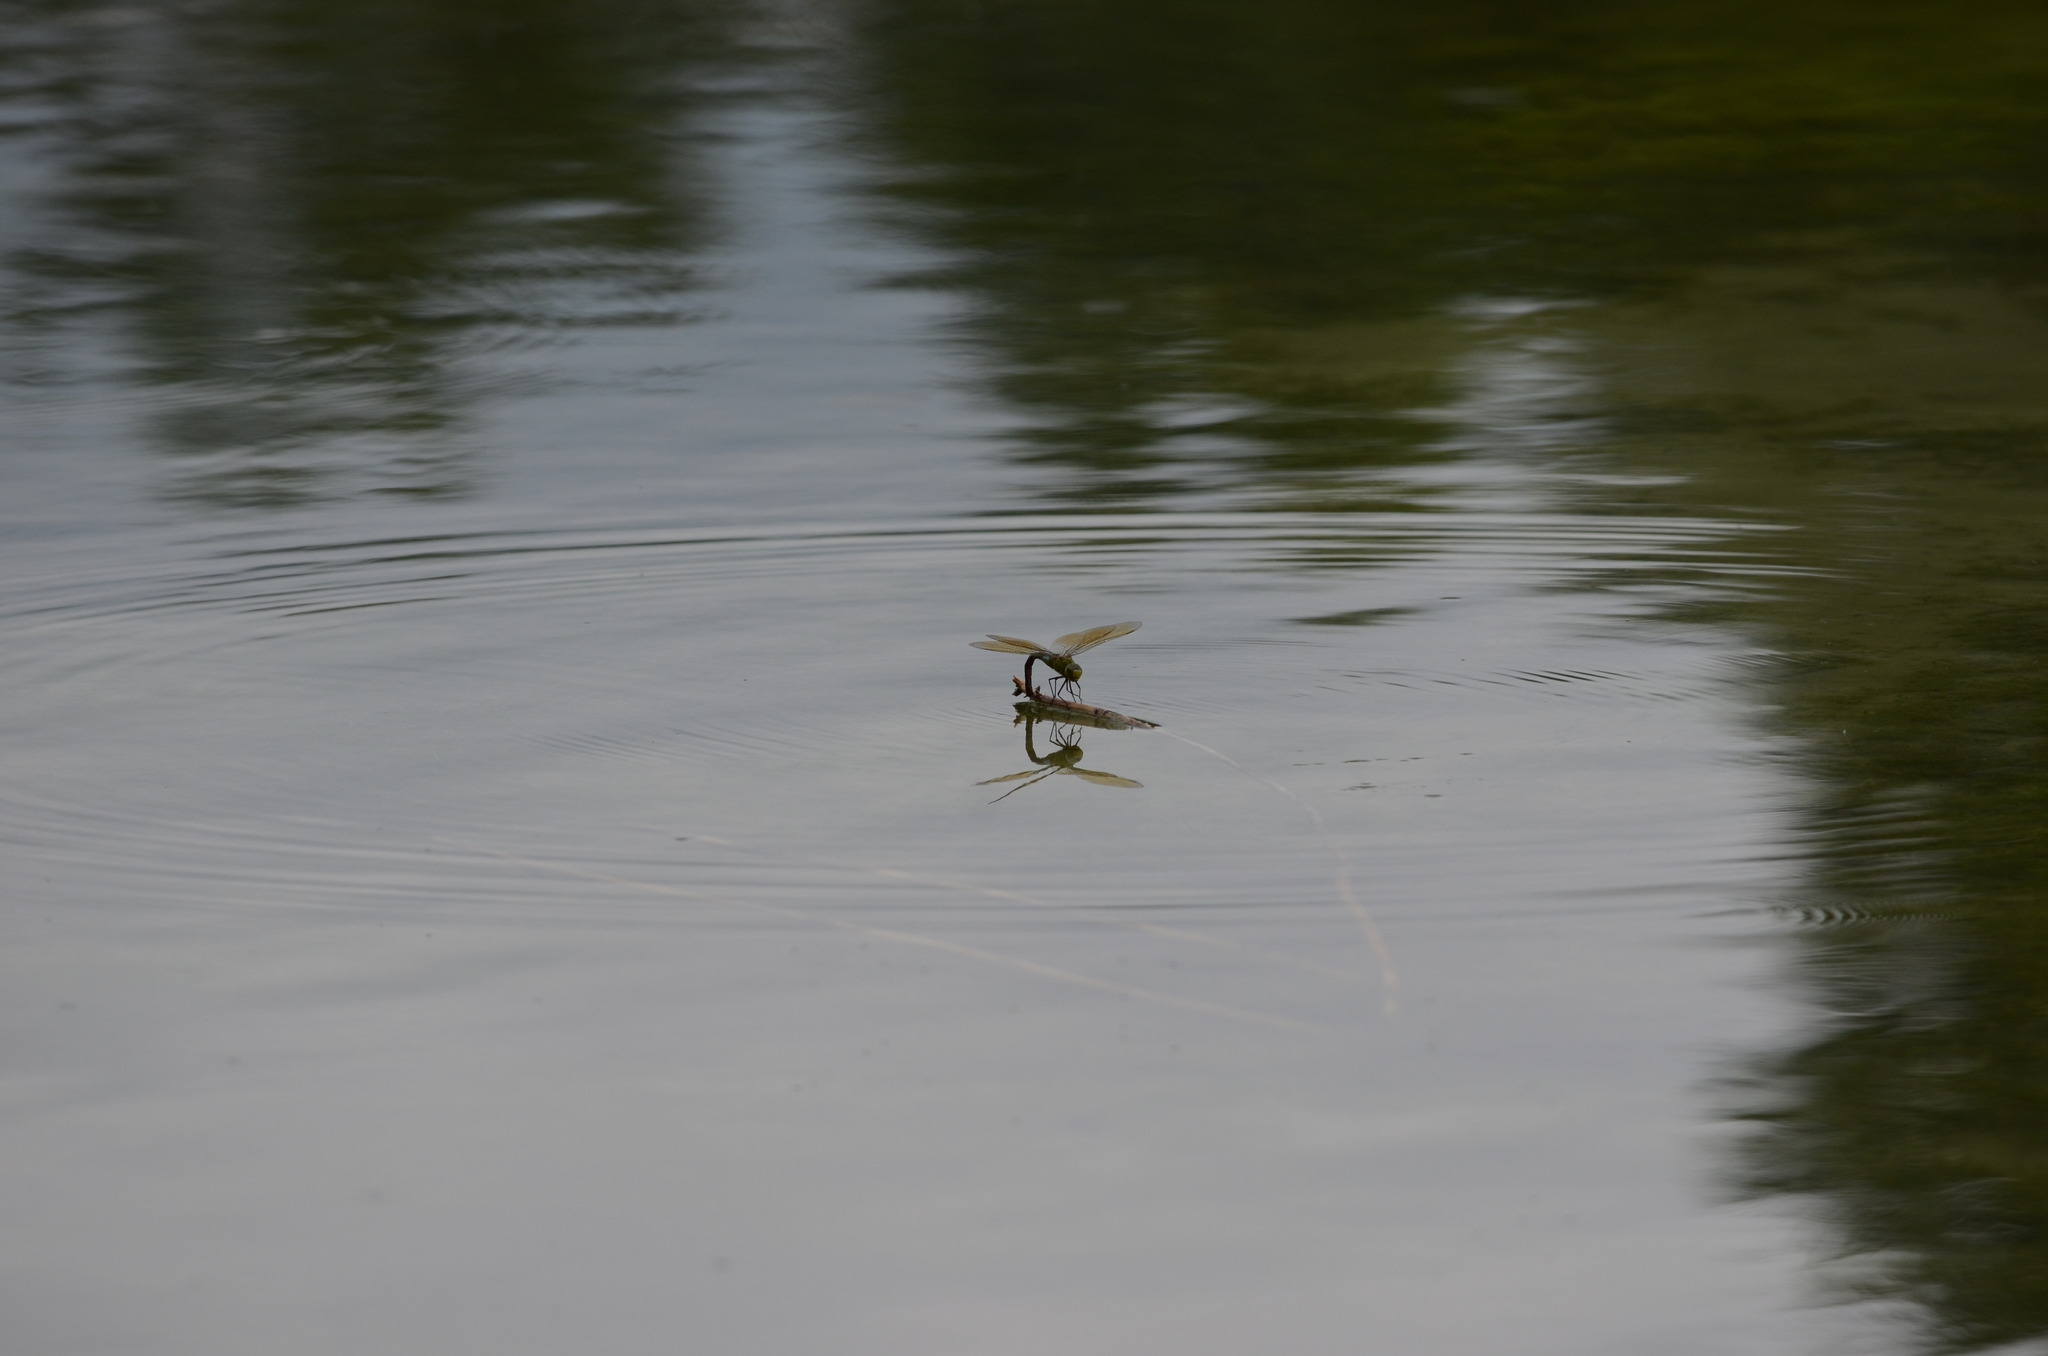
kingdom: Animalia
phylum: Arthropoda
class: Insecta
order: Odonata
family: Aeshnidae
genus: Anax
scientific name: Anax imperator
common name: Emperor dragonfly
